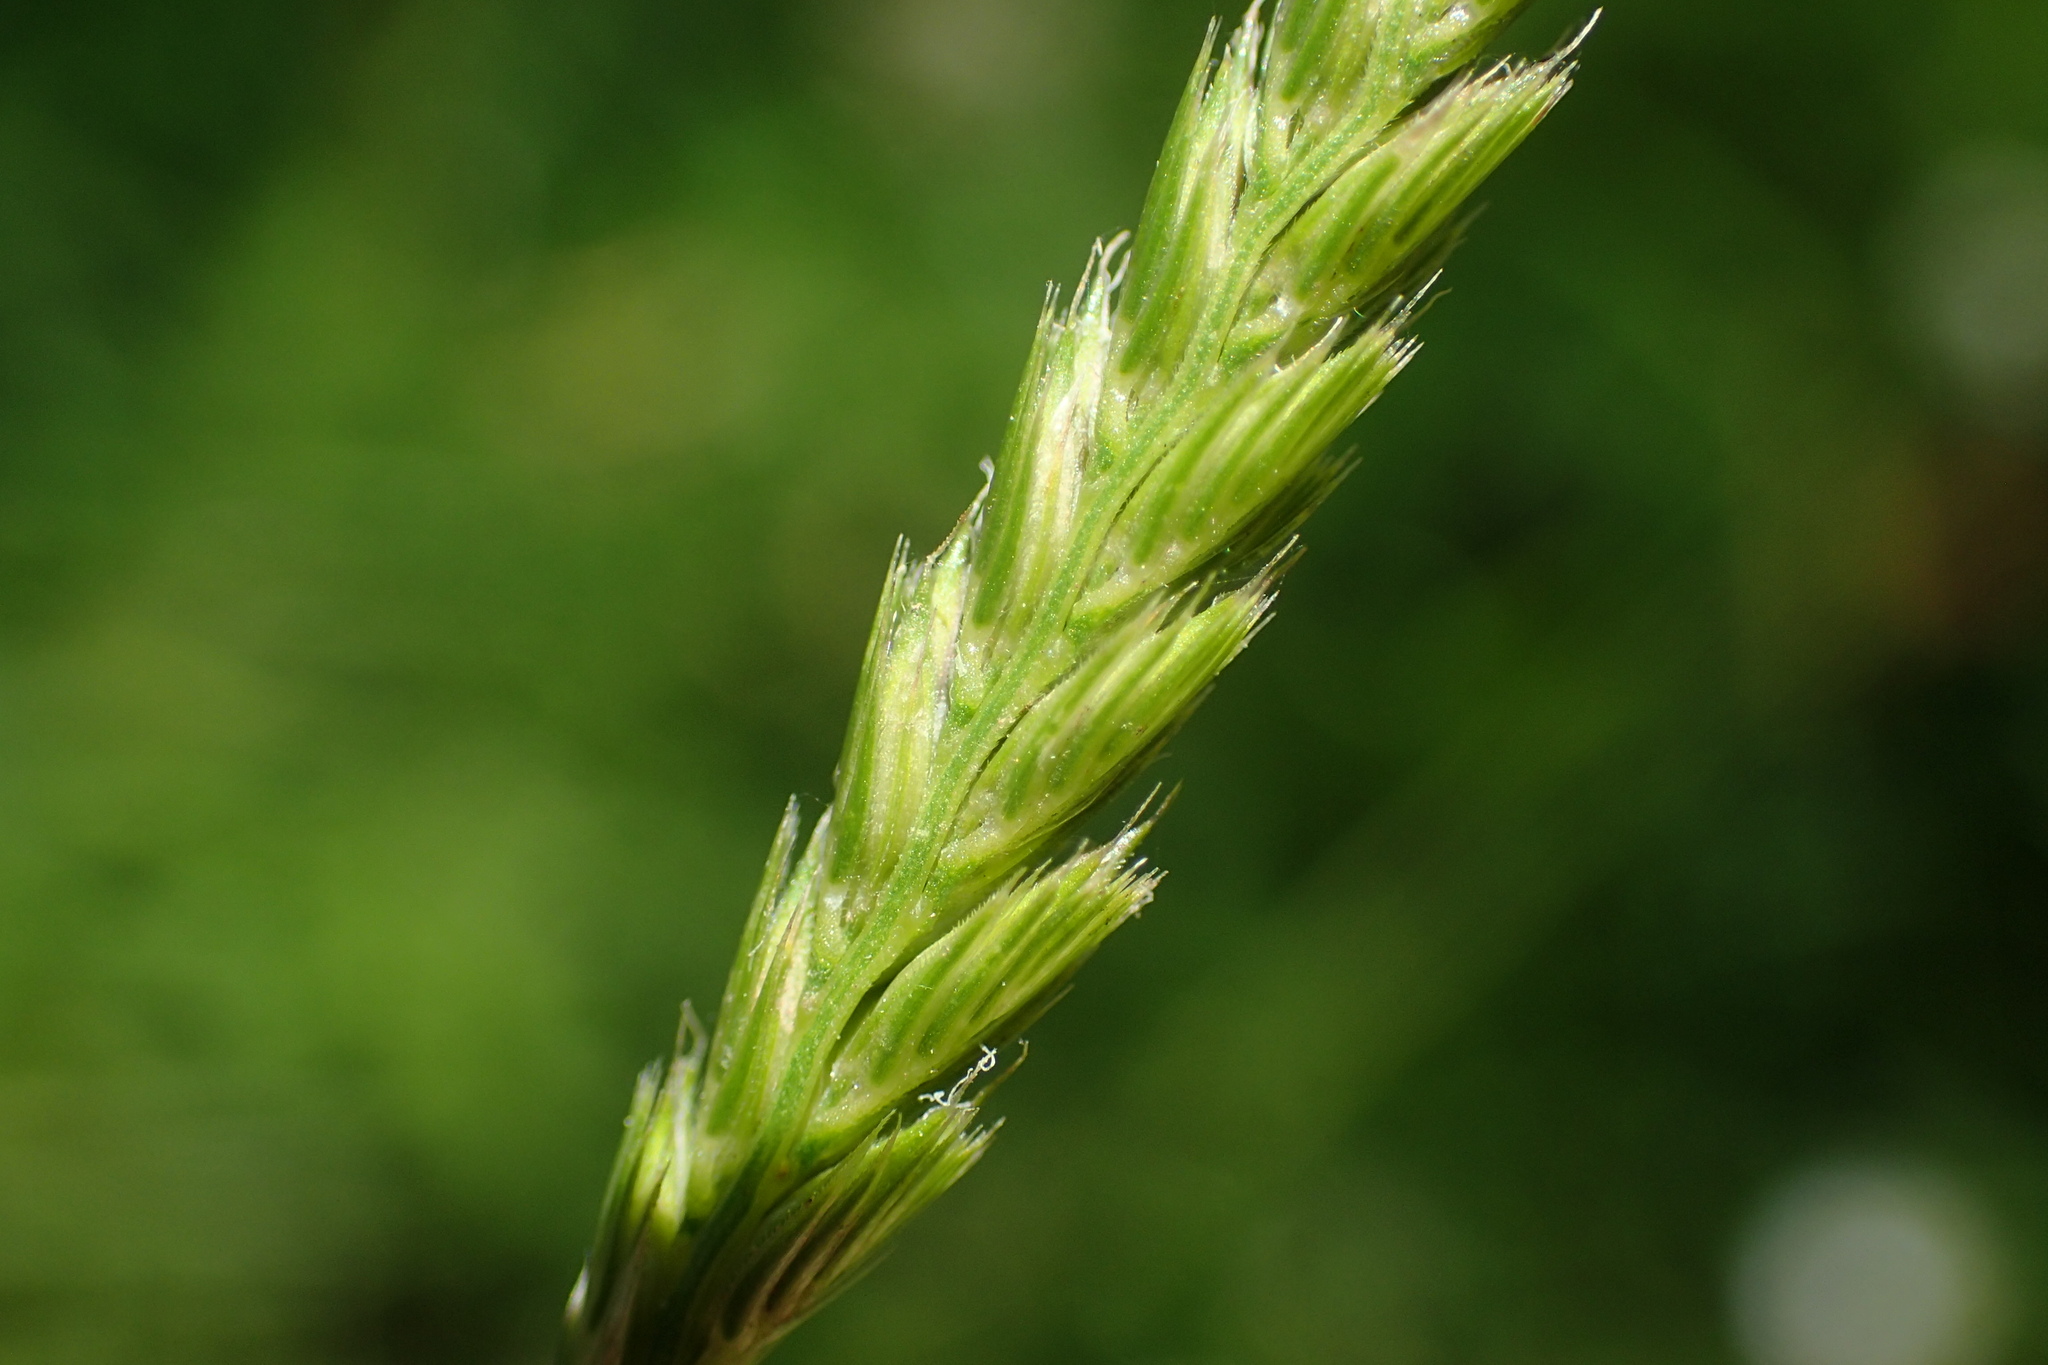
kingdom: Plantae
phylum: Tracheophyta
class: Liliopsida
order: Poales
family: Poaceae
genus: Cynosurus
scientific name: Cynosurus cristatus
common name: Crested dog's-tail
